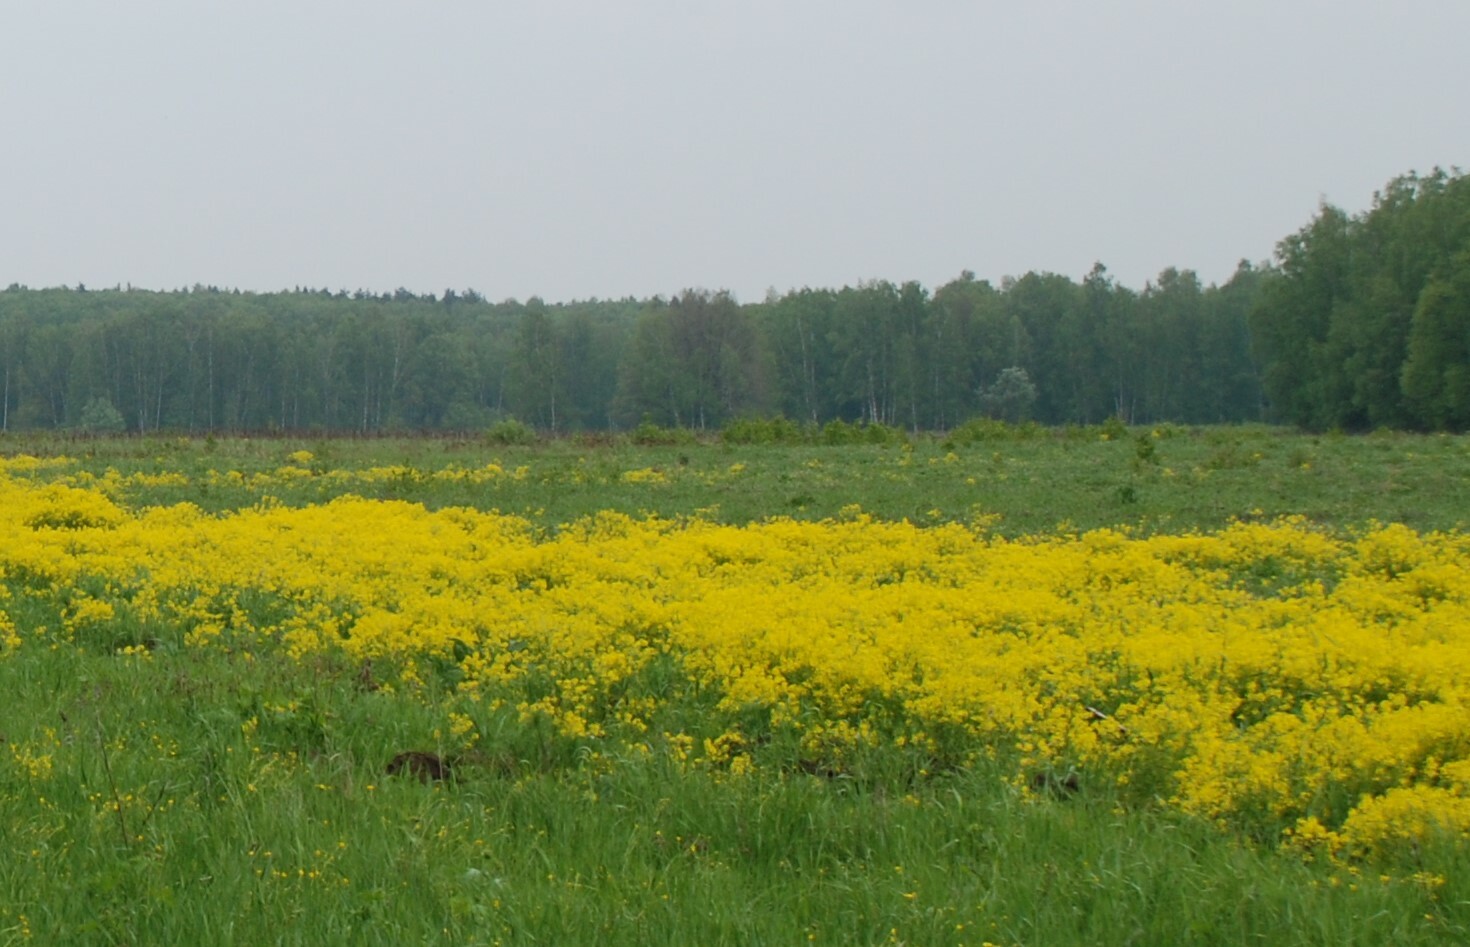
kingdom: Plantae
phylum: Tracheophyta
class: Magnoliopsida
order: Brassicales
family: Brassicaceae
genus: Barbarea
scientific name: Barbarea vulgaris
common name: Cressy-greens
